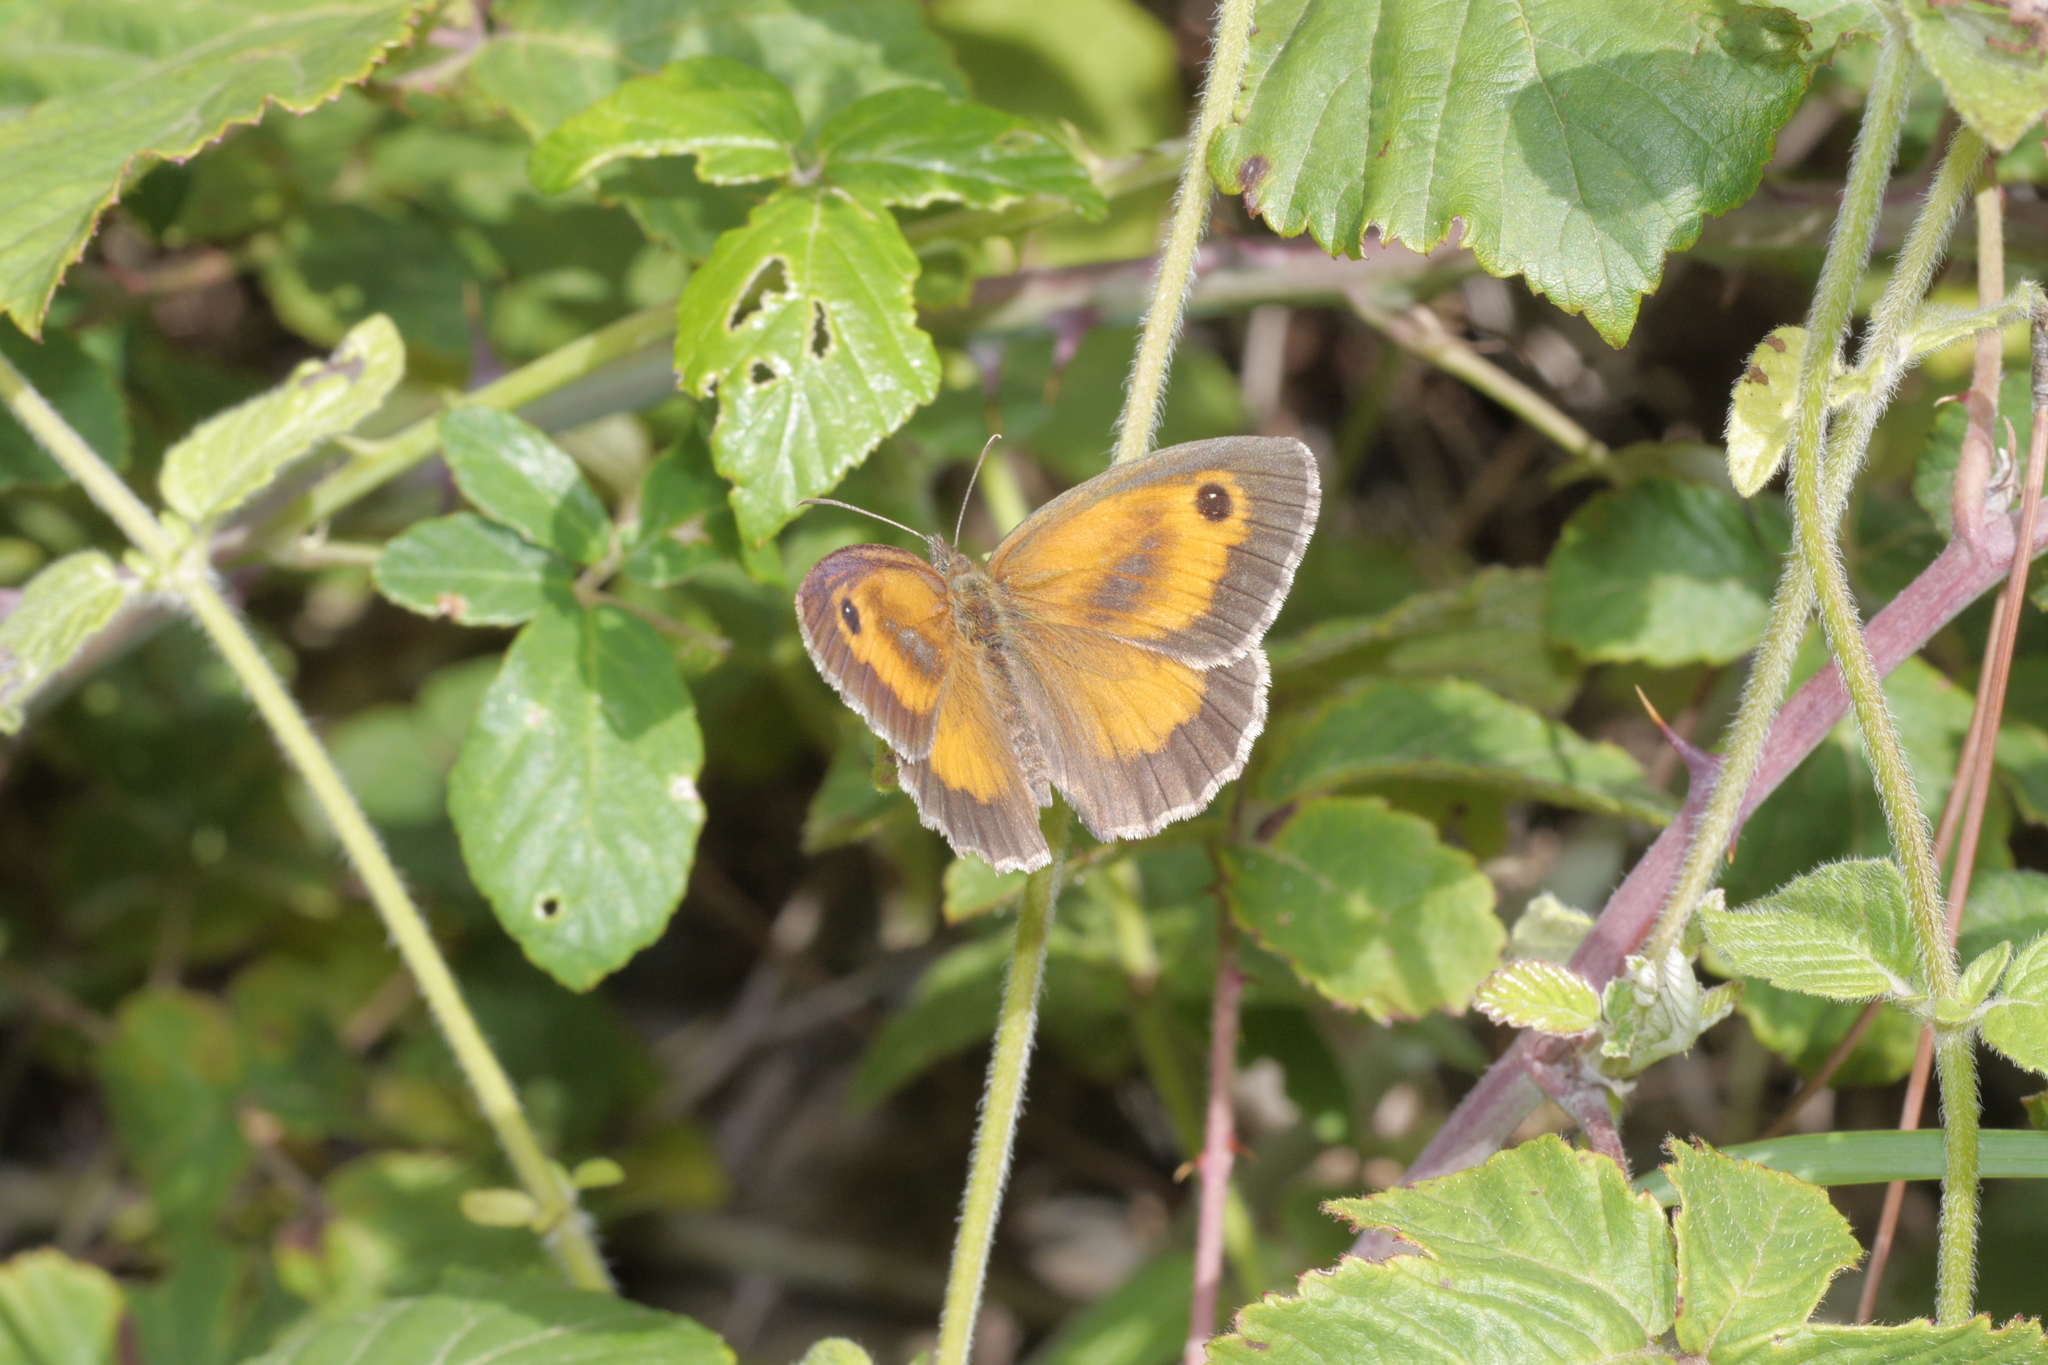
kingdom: Animalia
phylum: Arthropoda
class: Insecta
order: Lepidoptera
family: Nymphalidae
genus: Pyronia
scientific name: Pyronia tithonus
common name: Gatekeeper
